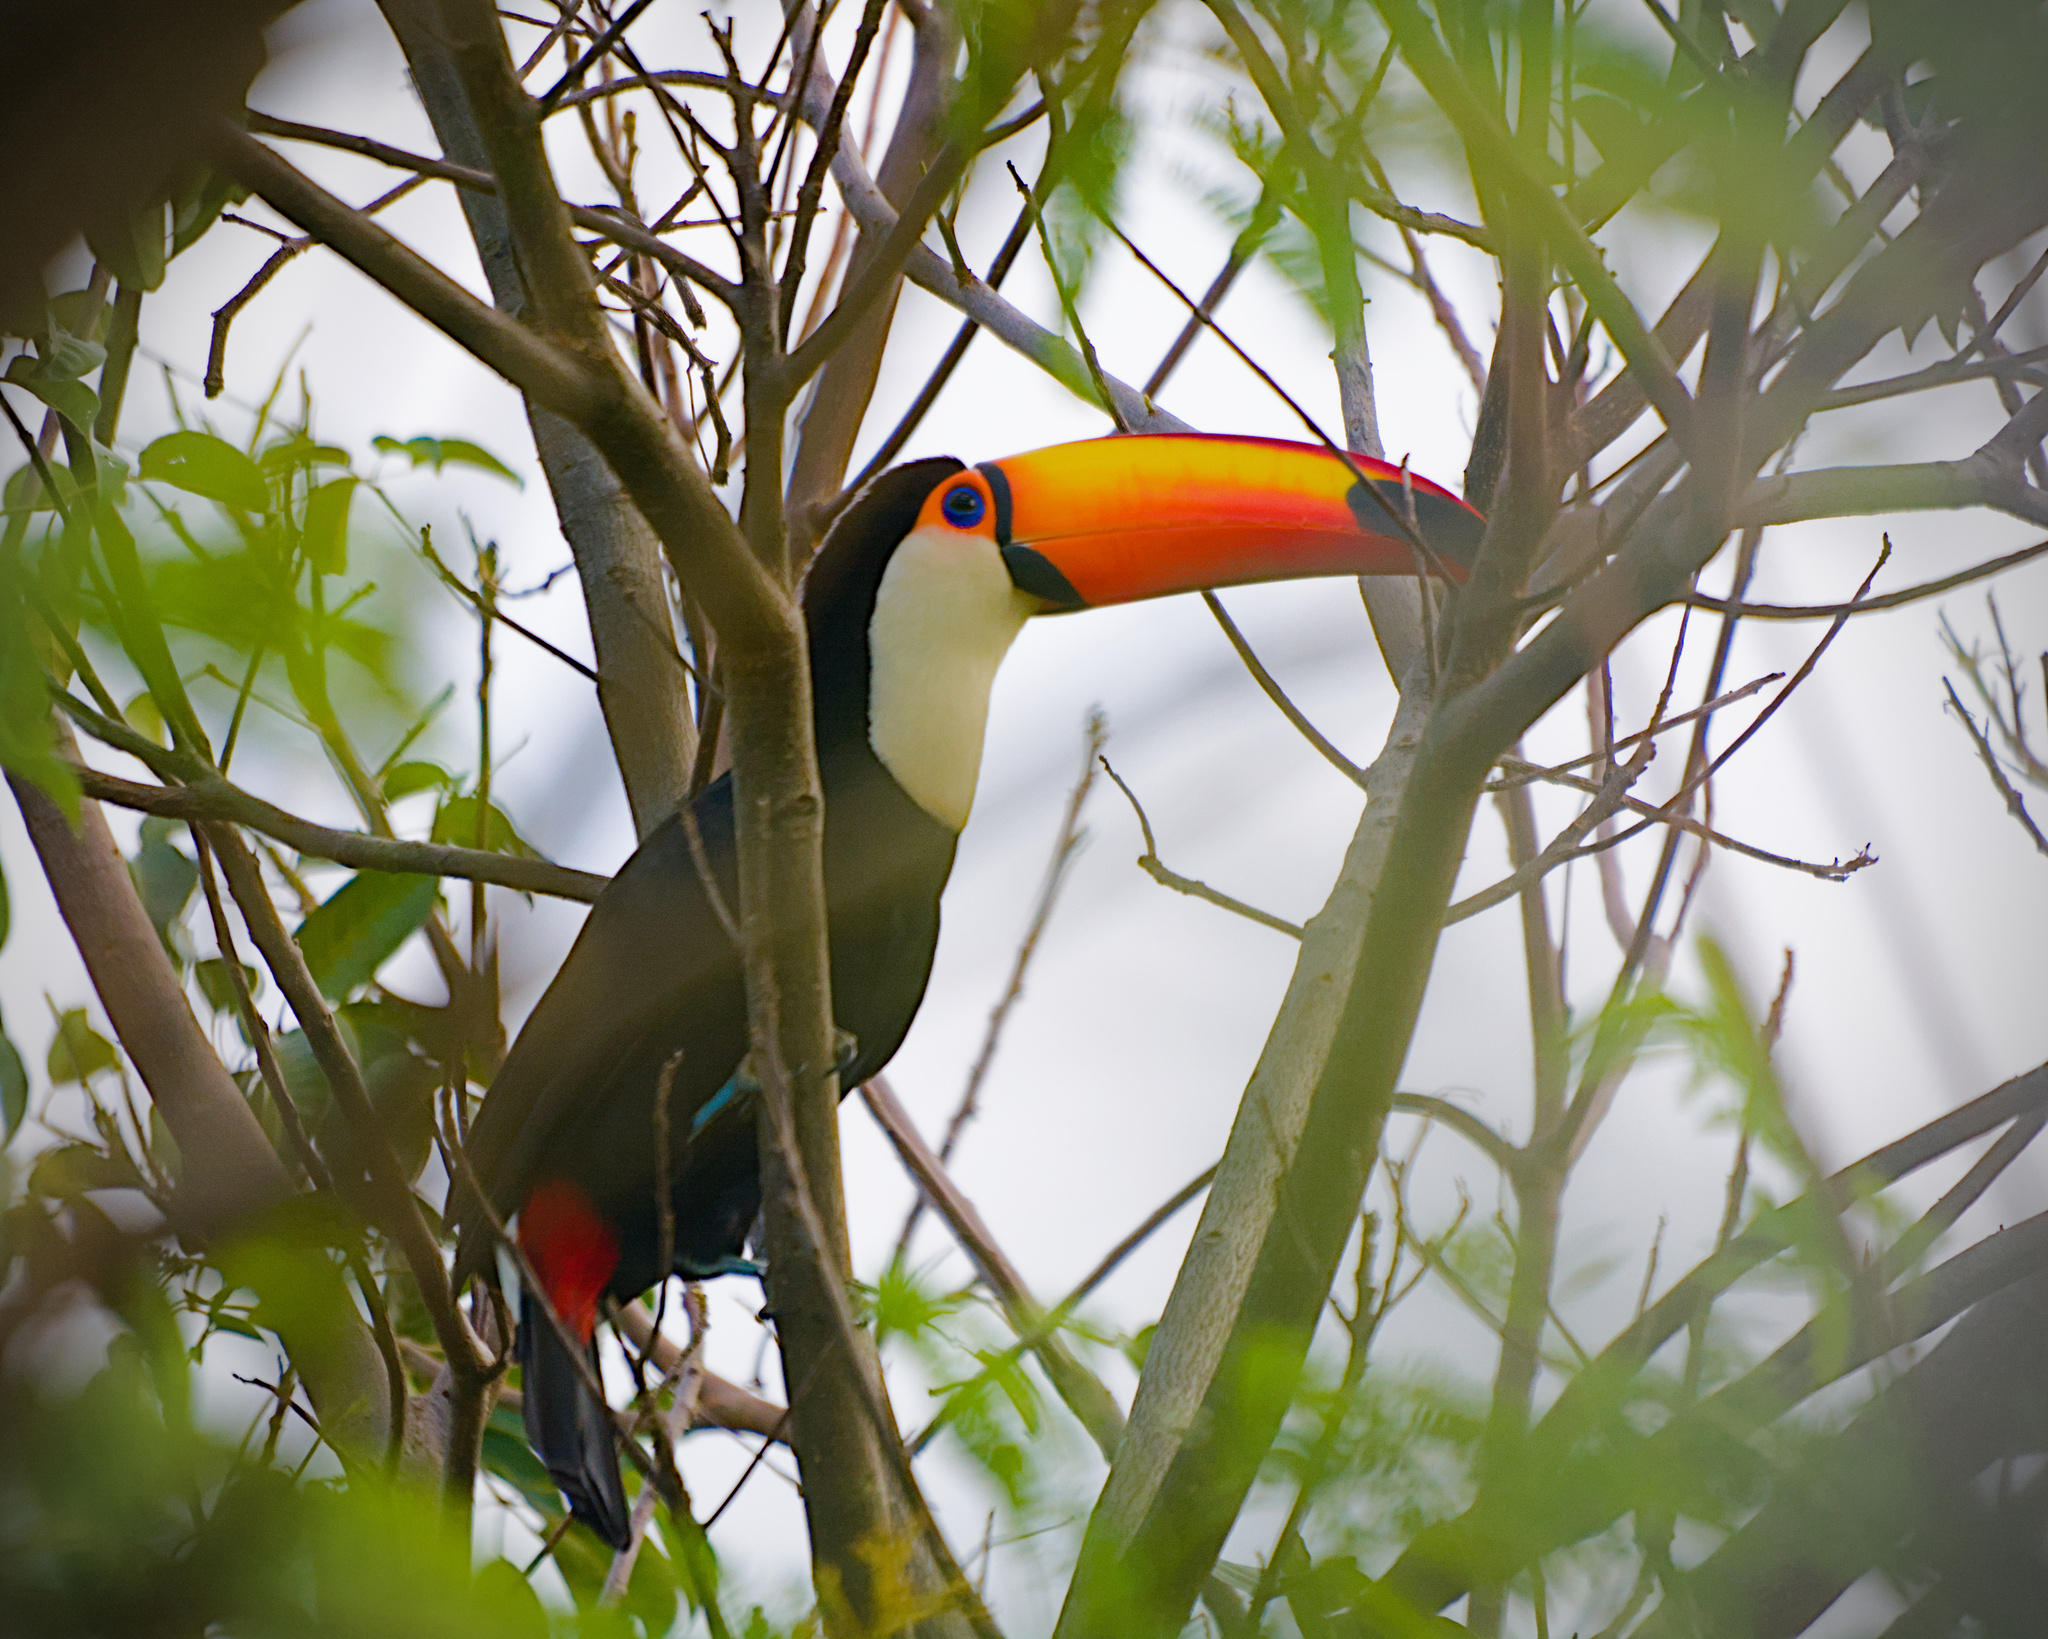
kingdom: Animalia
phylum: Chordata
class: Aves
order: Piciformes
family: Ramphastidae
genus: Ramphastos
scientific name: Ramphastos toco
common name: Toco toucan
